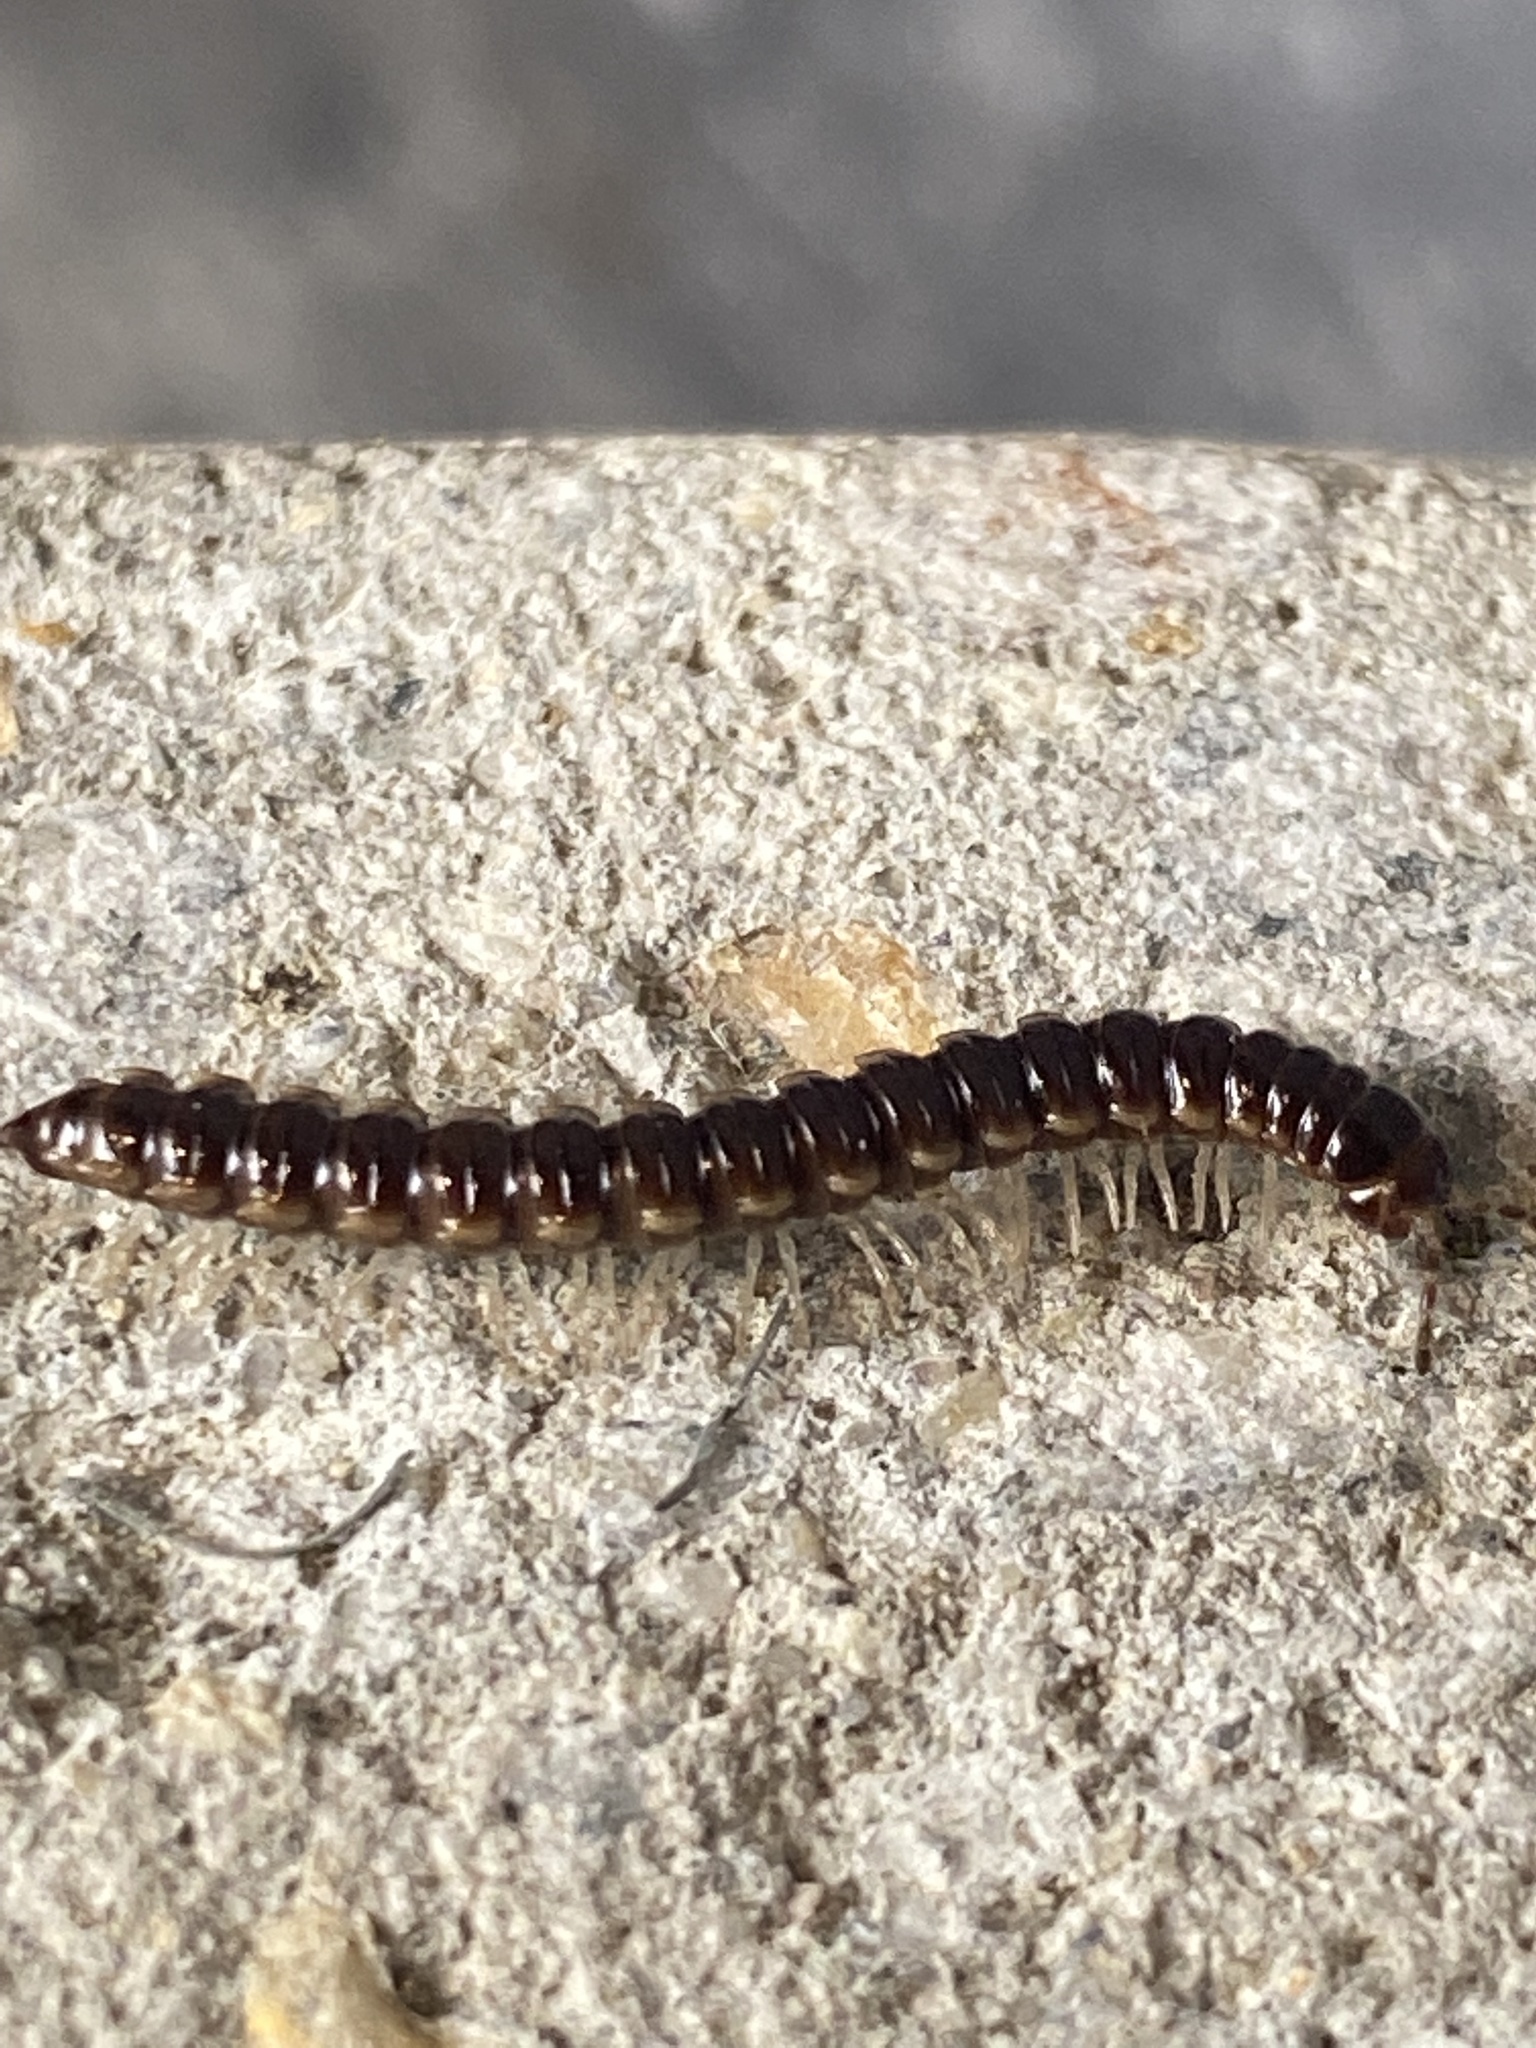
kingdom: Animalia
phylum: Arthropoda
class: Diplopoda
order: Polydesmida
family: Paradoxosomatidae
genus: Oxidus
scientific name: Oxidus gracilis
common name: Greenhouse millipede
